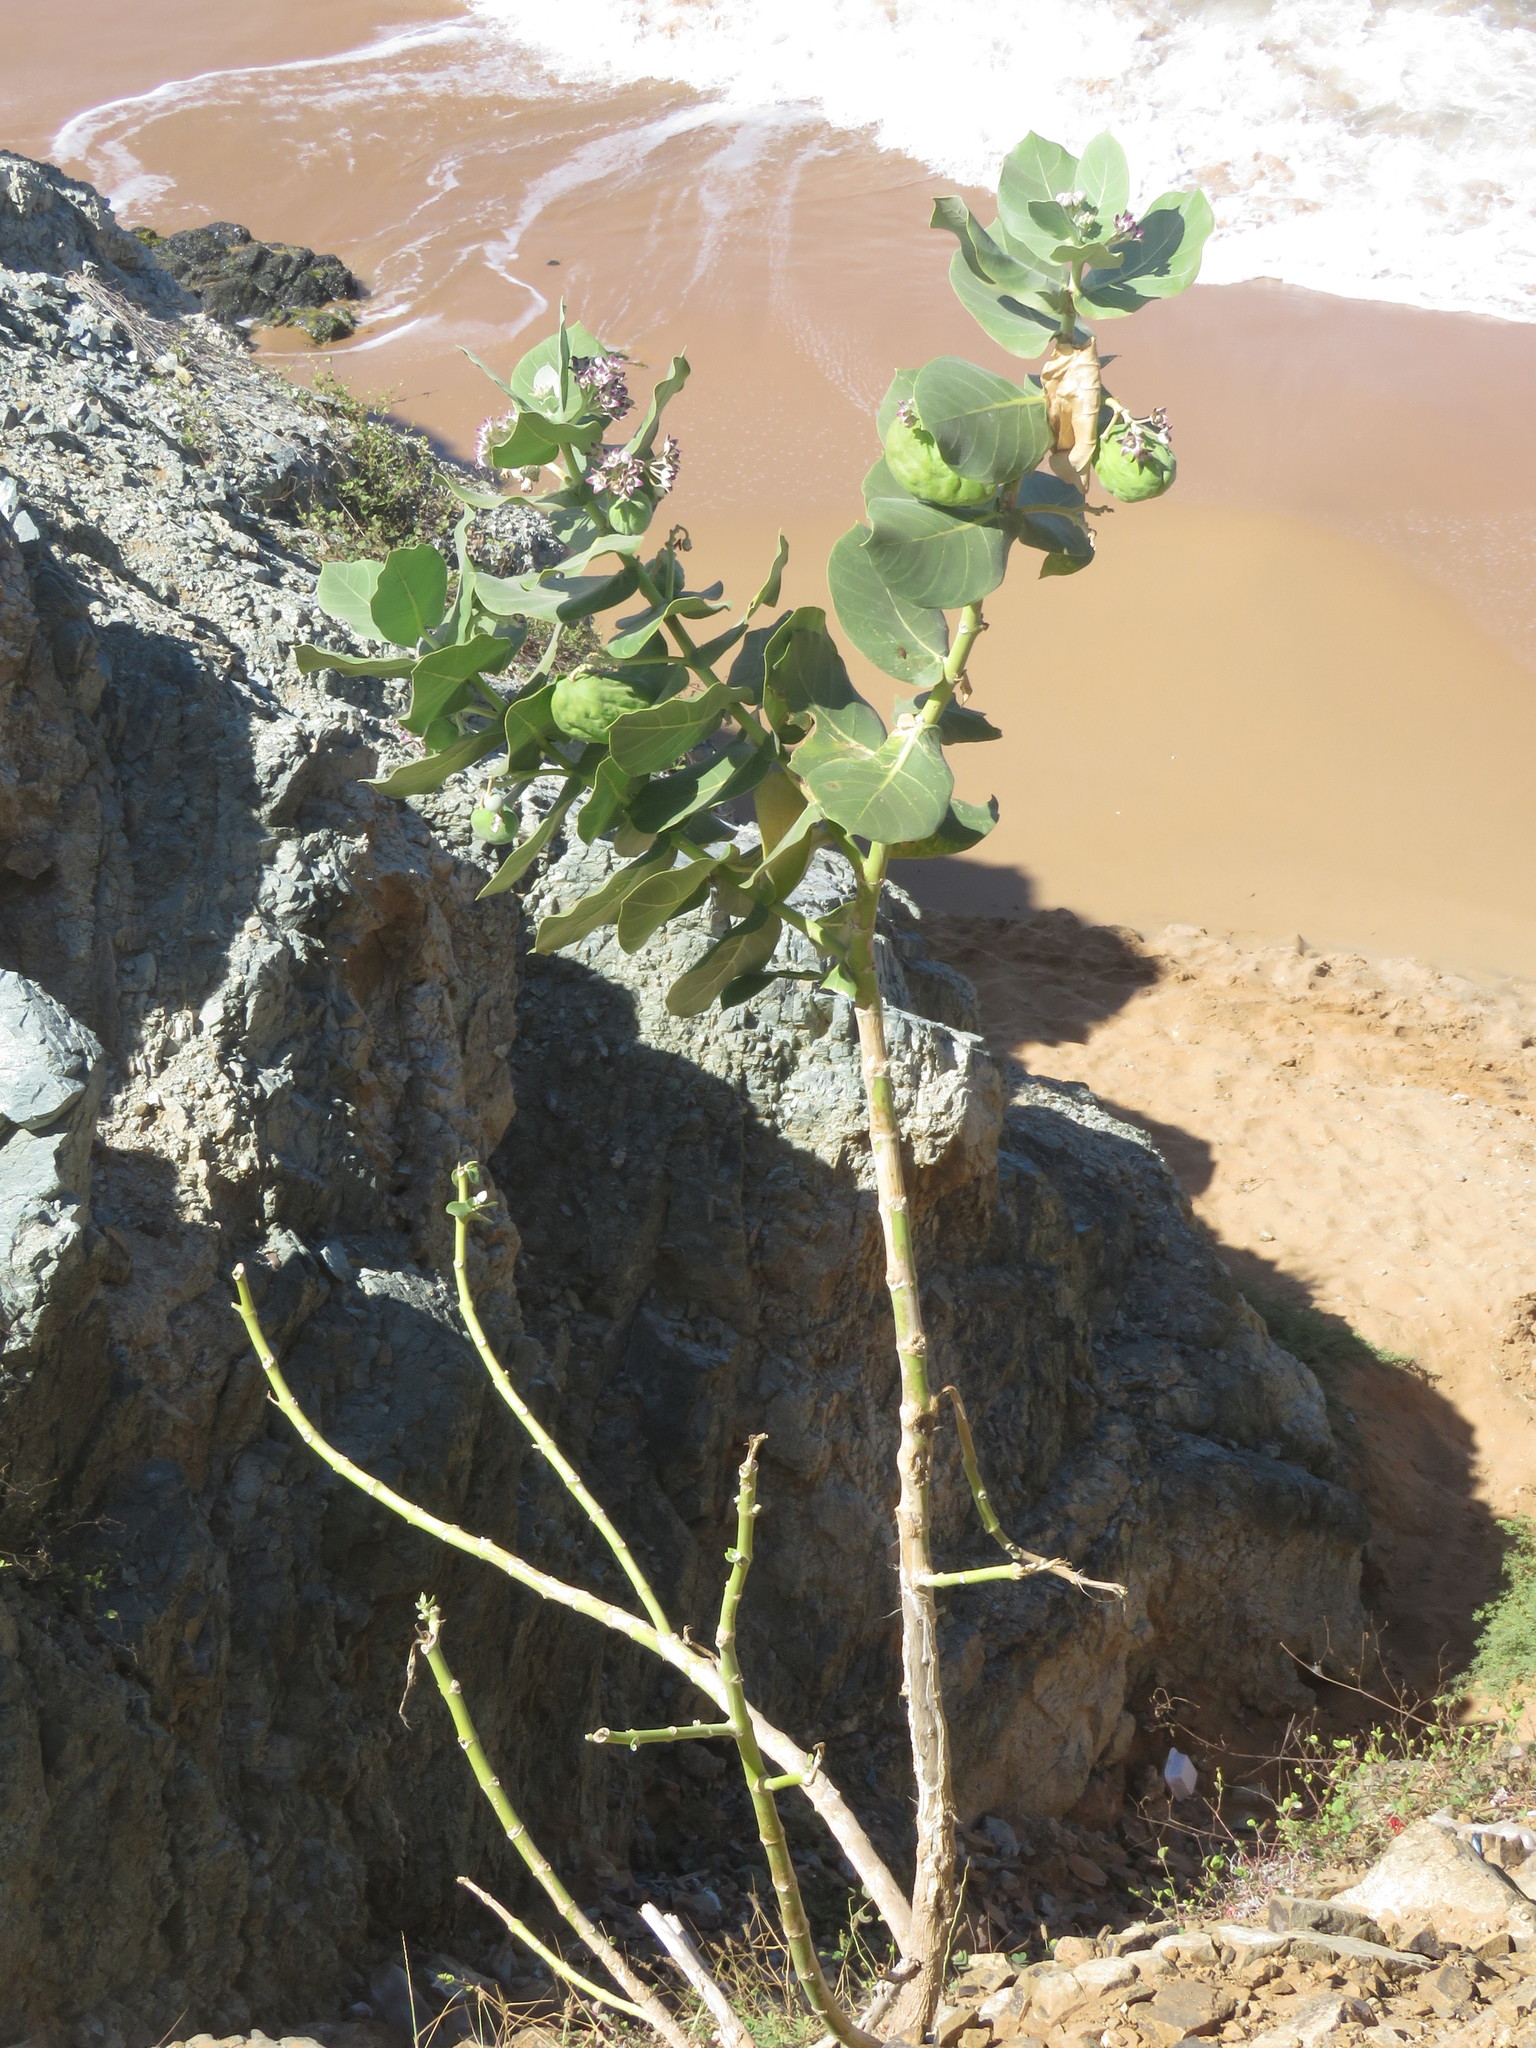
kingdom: Plantae
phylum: Tracheophyta
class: Magnoliopsida
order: Gentianales
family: Apocynaceae
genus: Calotropis
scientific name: Calotropis procera
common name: Roostertree
